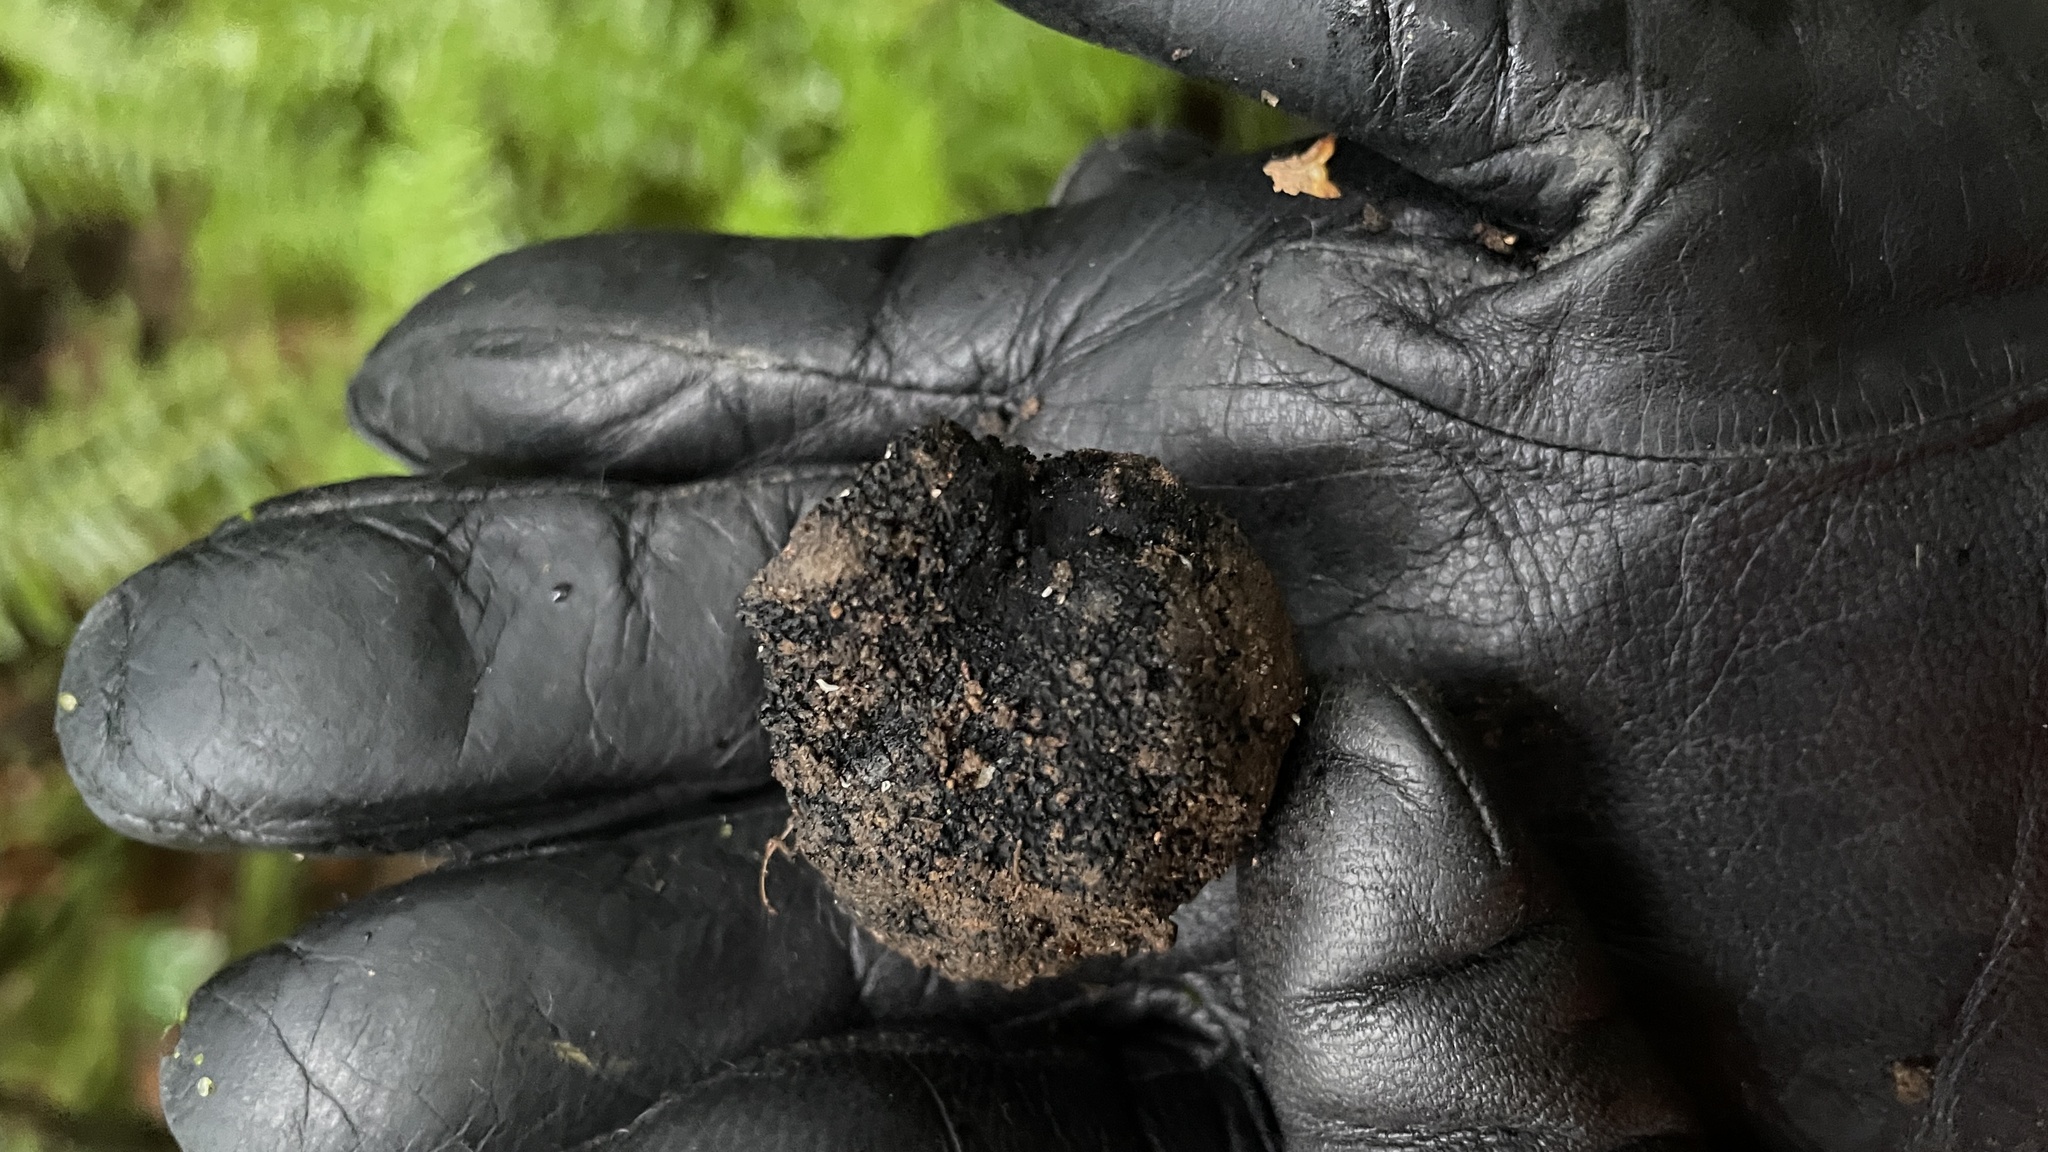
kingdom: Fungi
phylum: Ascomycota
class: Pezizomycetes
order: Pezizales
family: Morchellaceae
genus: Leucangium
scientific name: Leucangium carthusianum
